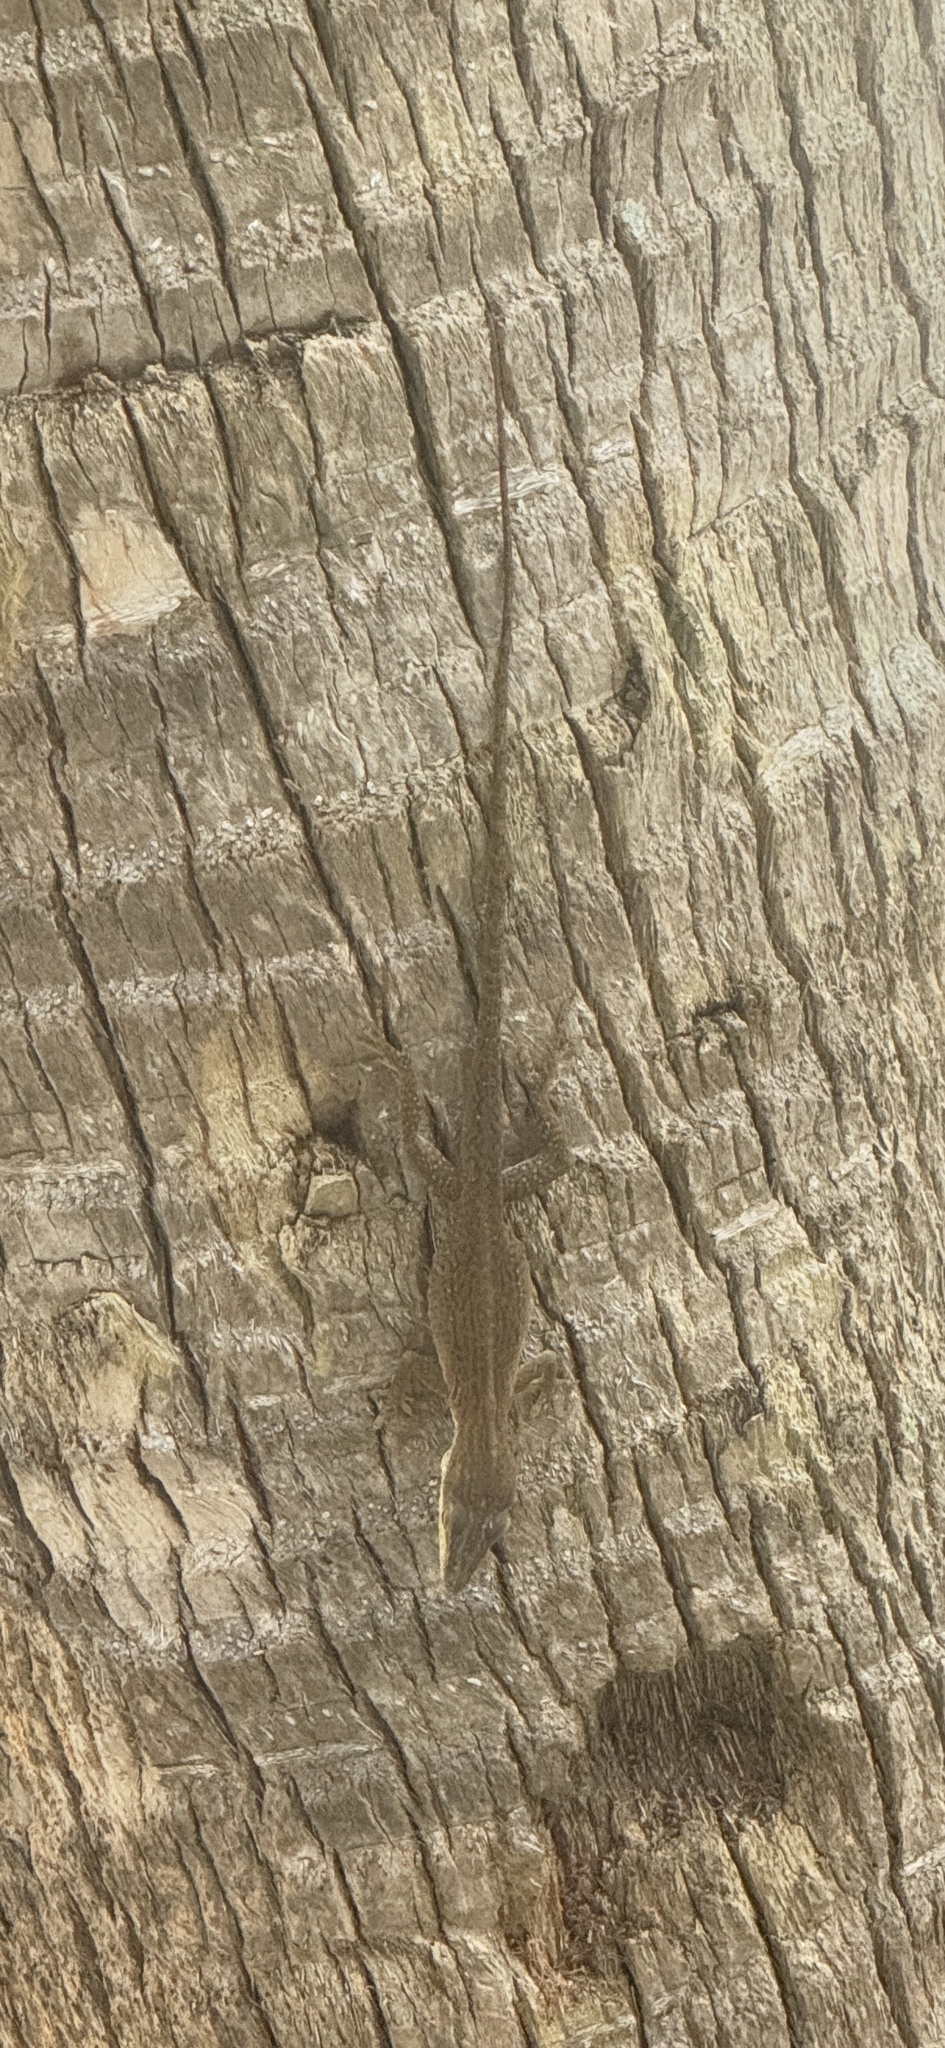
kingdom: Animalia
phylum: Chordata
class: Squamata
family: Dactyloidae
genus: Anolis
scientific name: Anolis carolinensis
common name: Green anole
